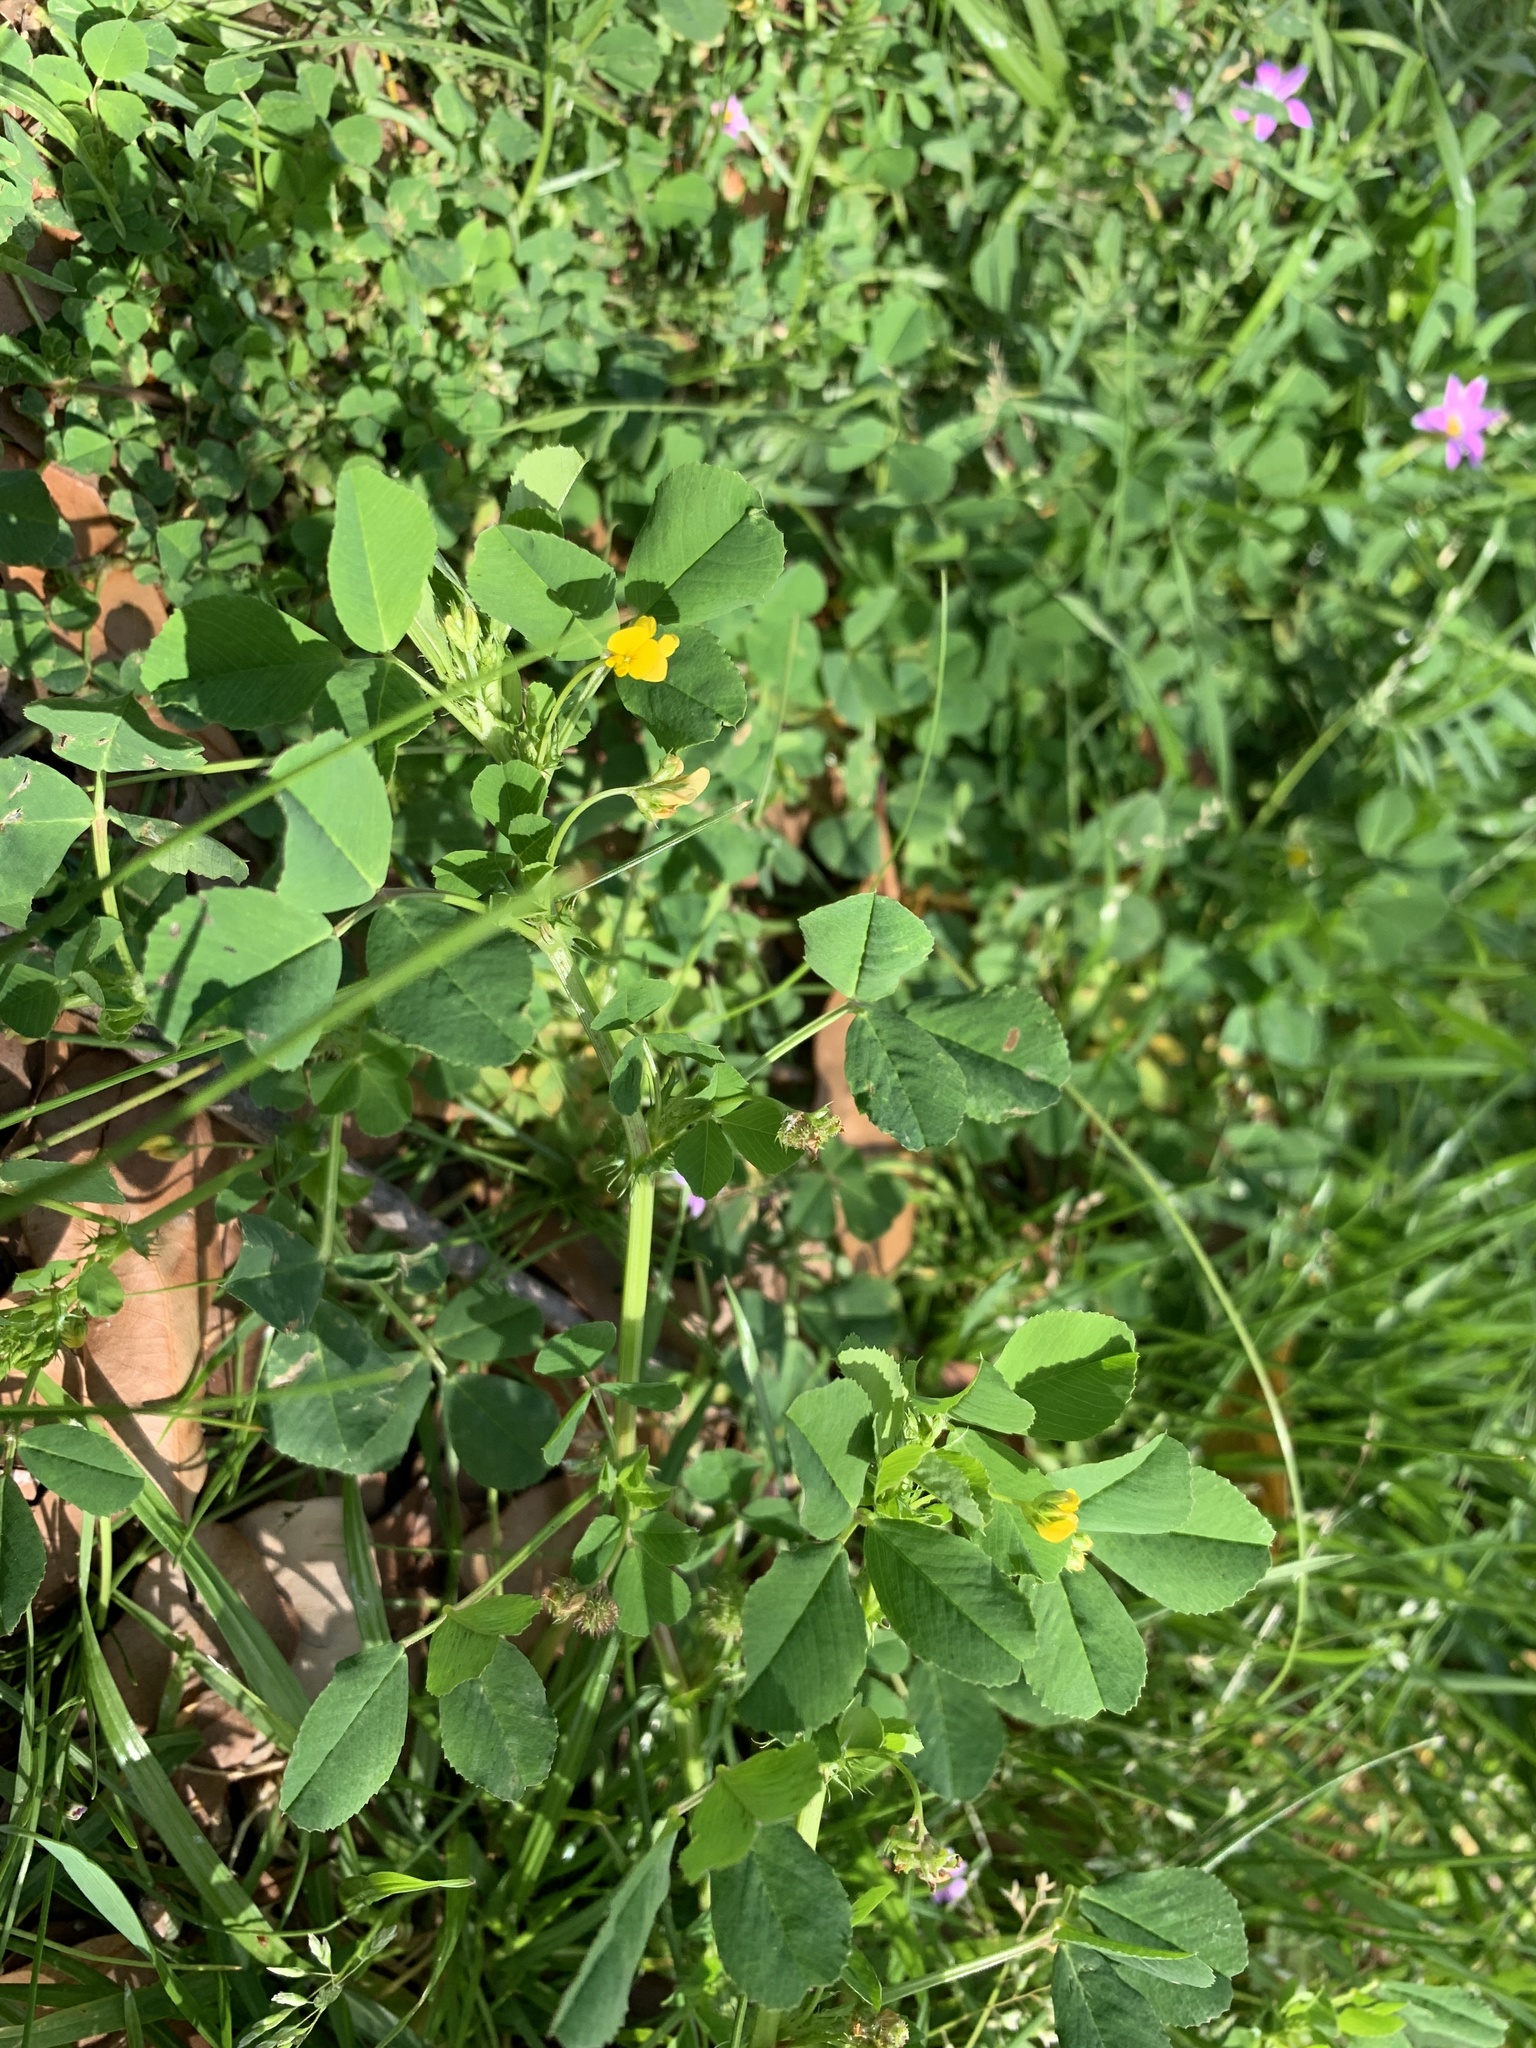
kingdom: Plantae
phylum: Tracheophyta
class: Magnoliopsida
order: Fabales
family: Fabaceae
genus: Medicago
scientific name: Medicago polymorpha
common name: Burclover
